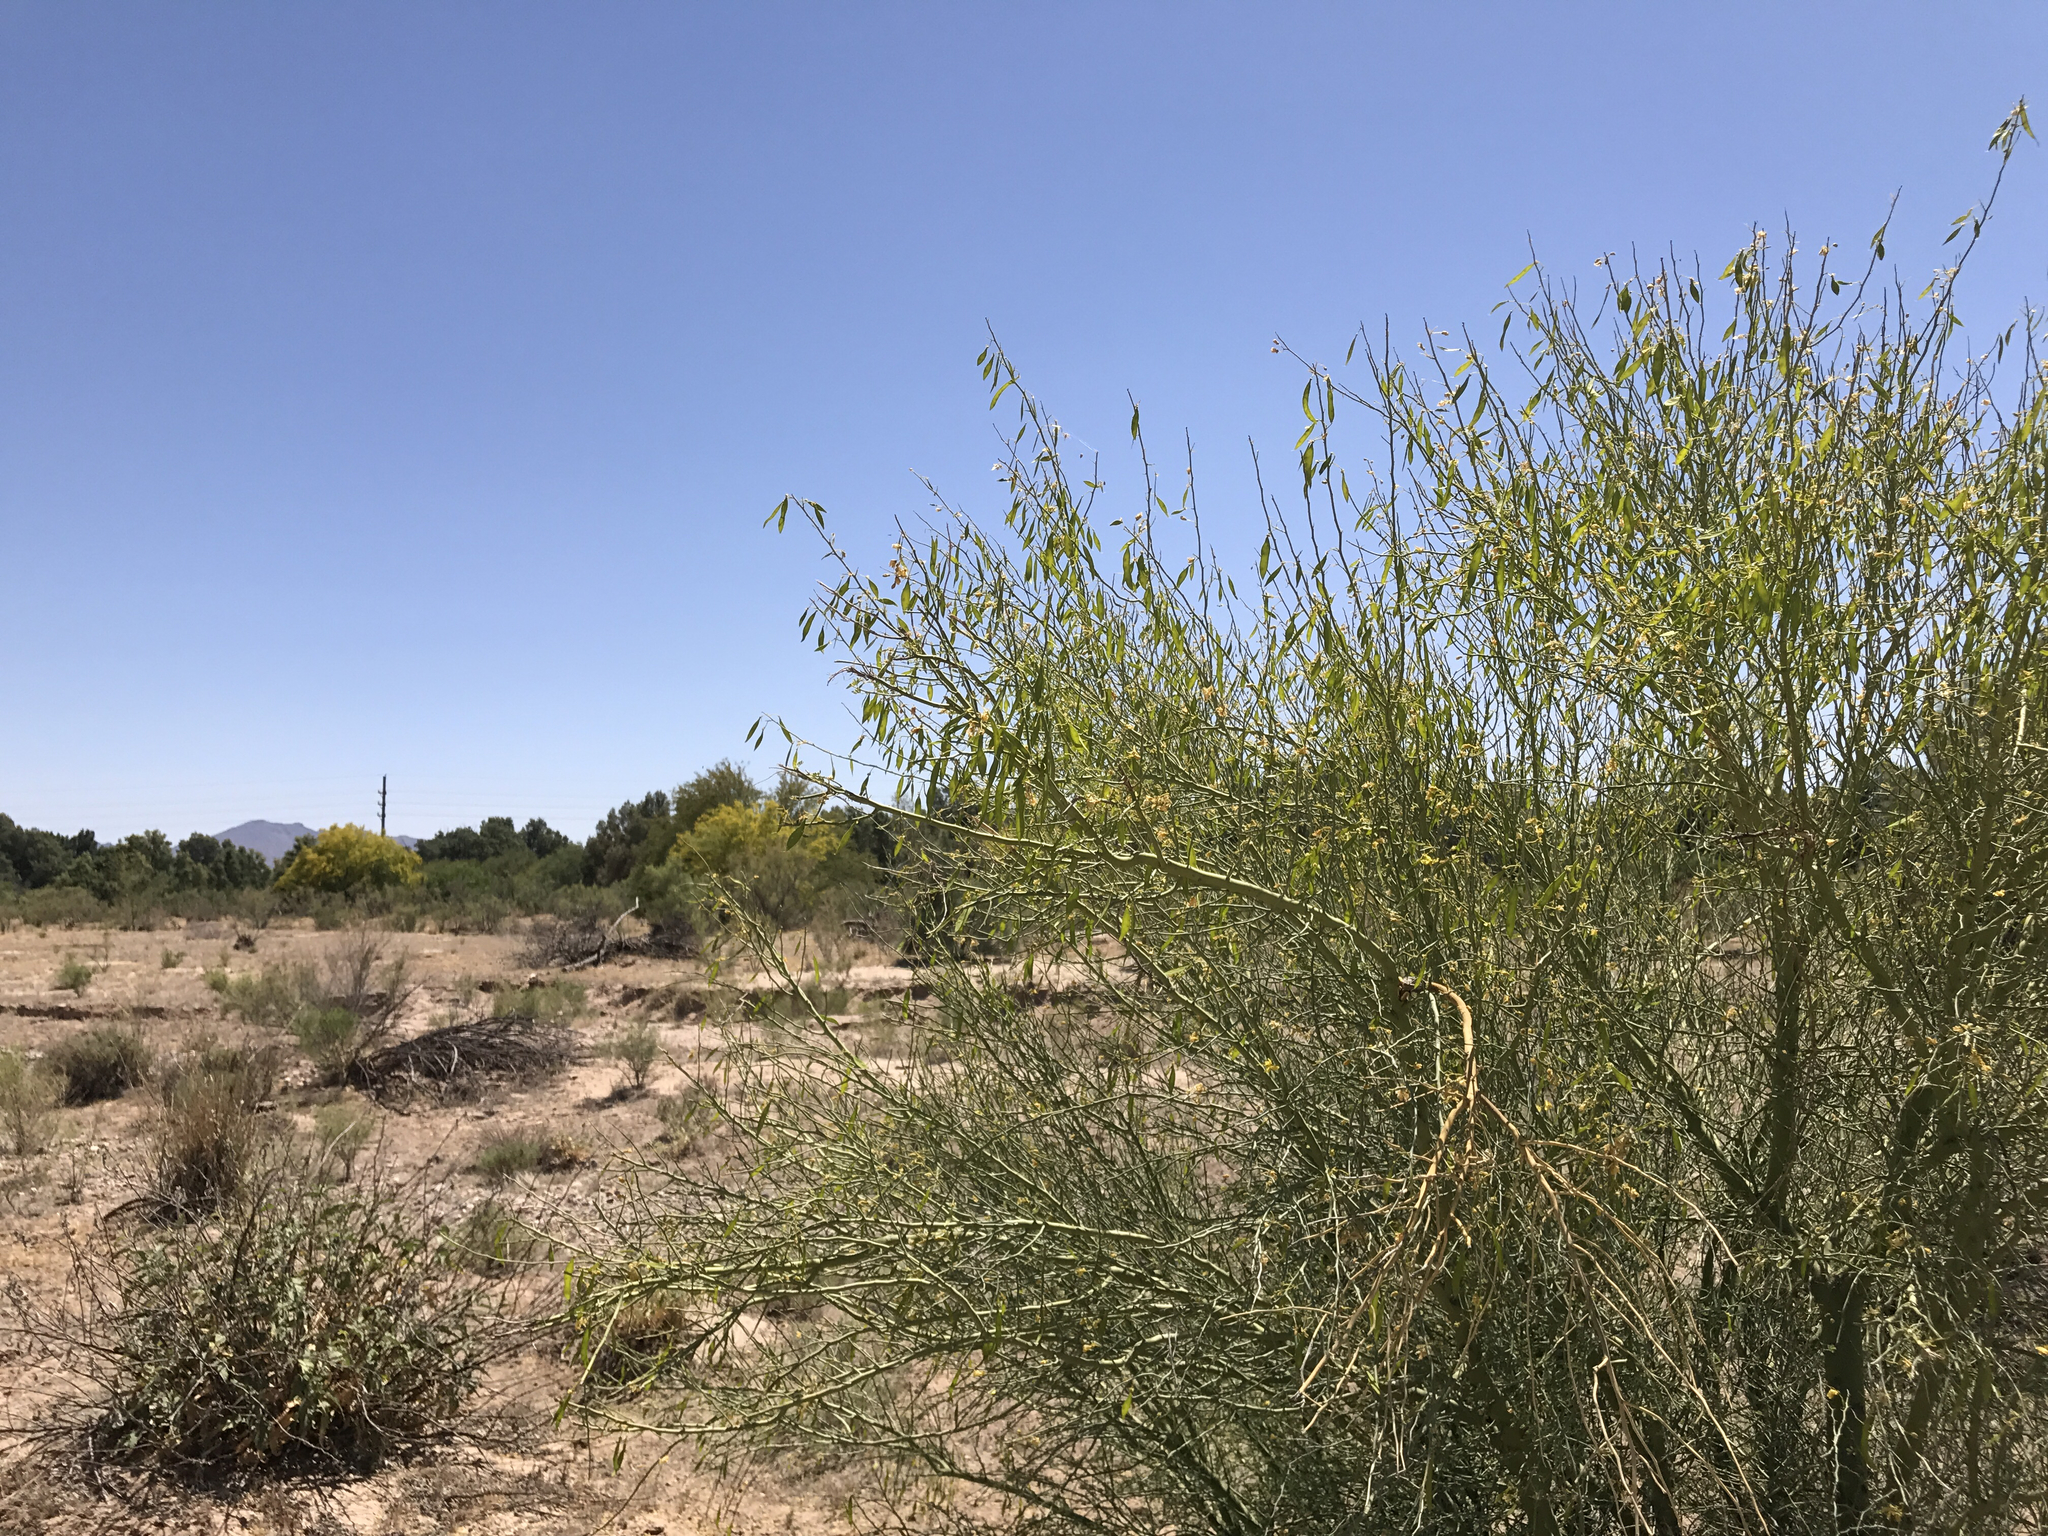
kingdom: Plantae
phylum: Tracheophyta
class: Magnoliopsida
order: Fabales
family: Fabaceae
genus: Parkinsonia
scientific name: Parkinsonia florida
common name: Blue paloverde
